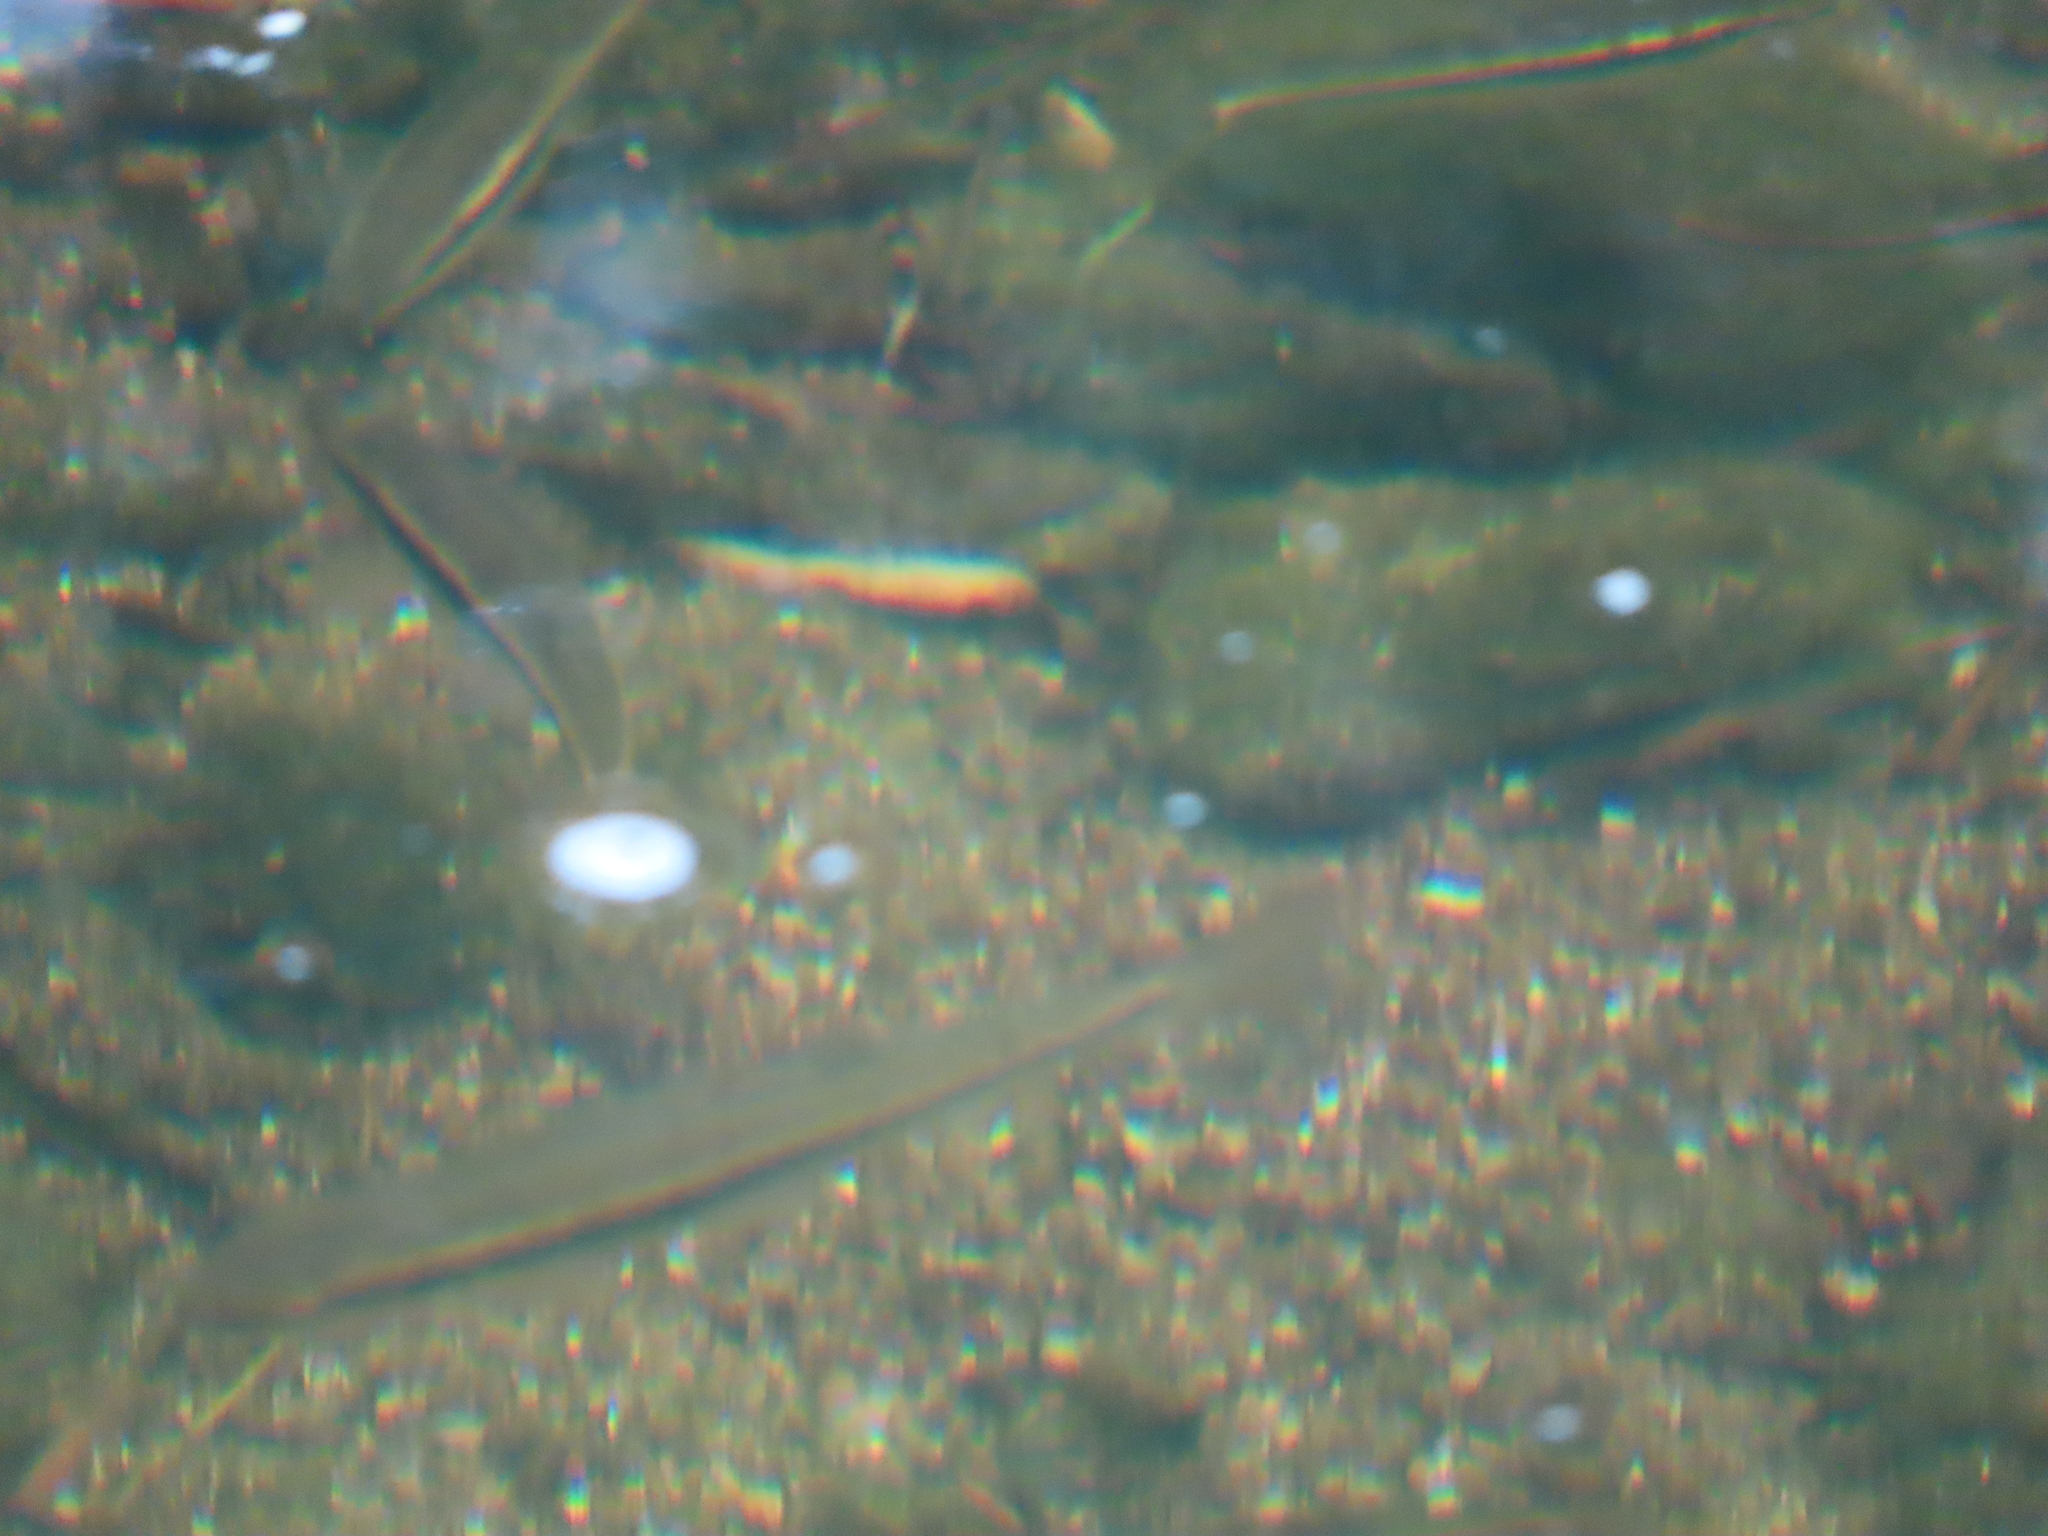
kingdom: Animalia
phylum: Chordata
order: Cypriniformes
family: Cyprinidae
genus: Rhinichthys
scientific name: Rhinichthys atratulus
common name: Eastern blacknose dace
